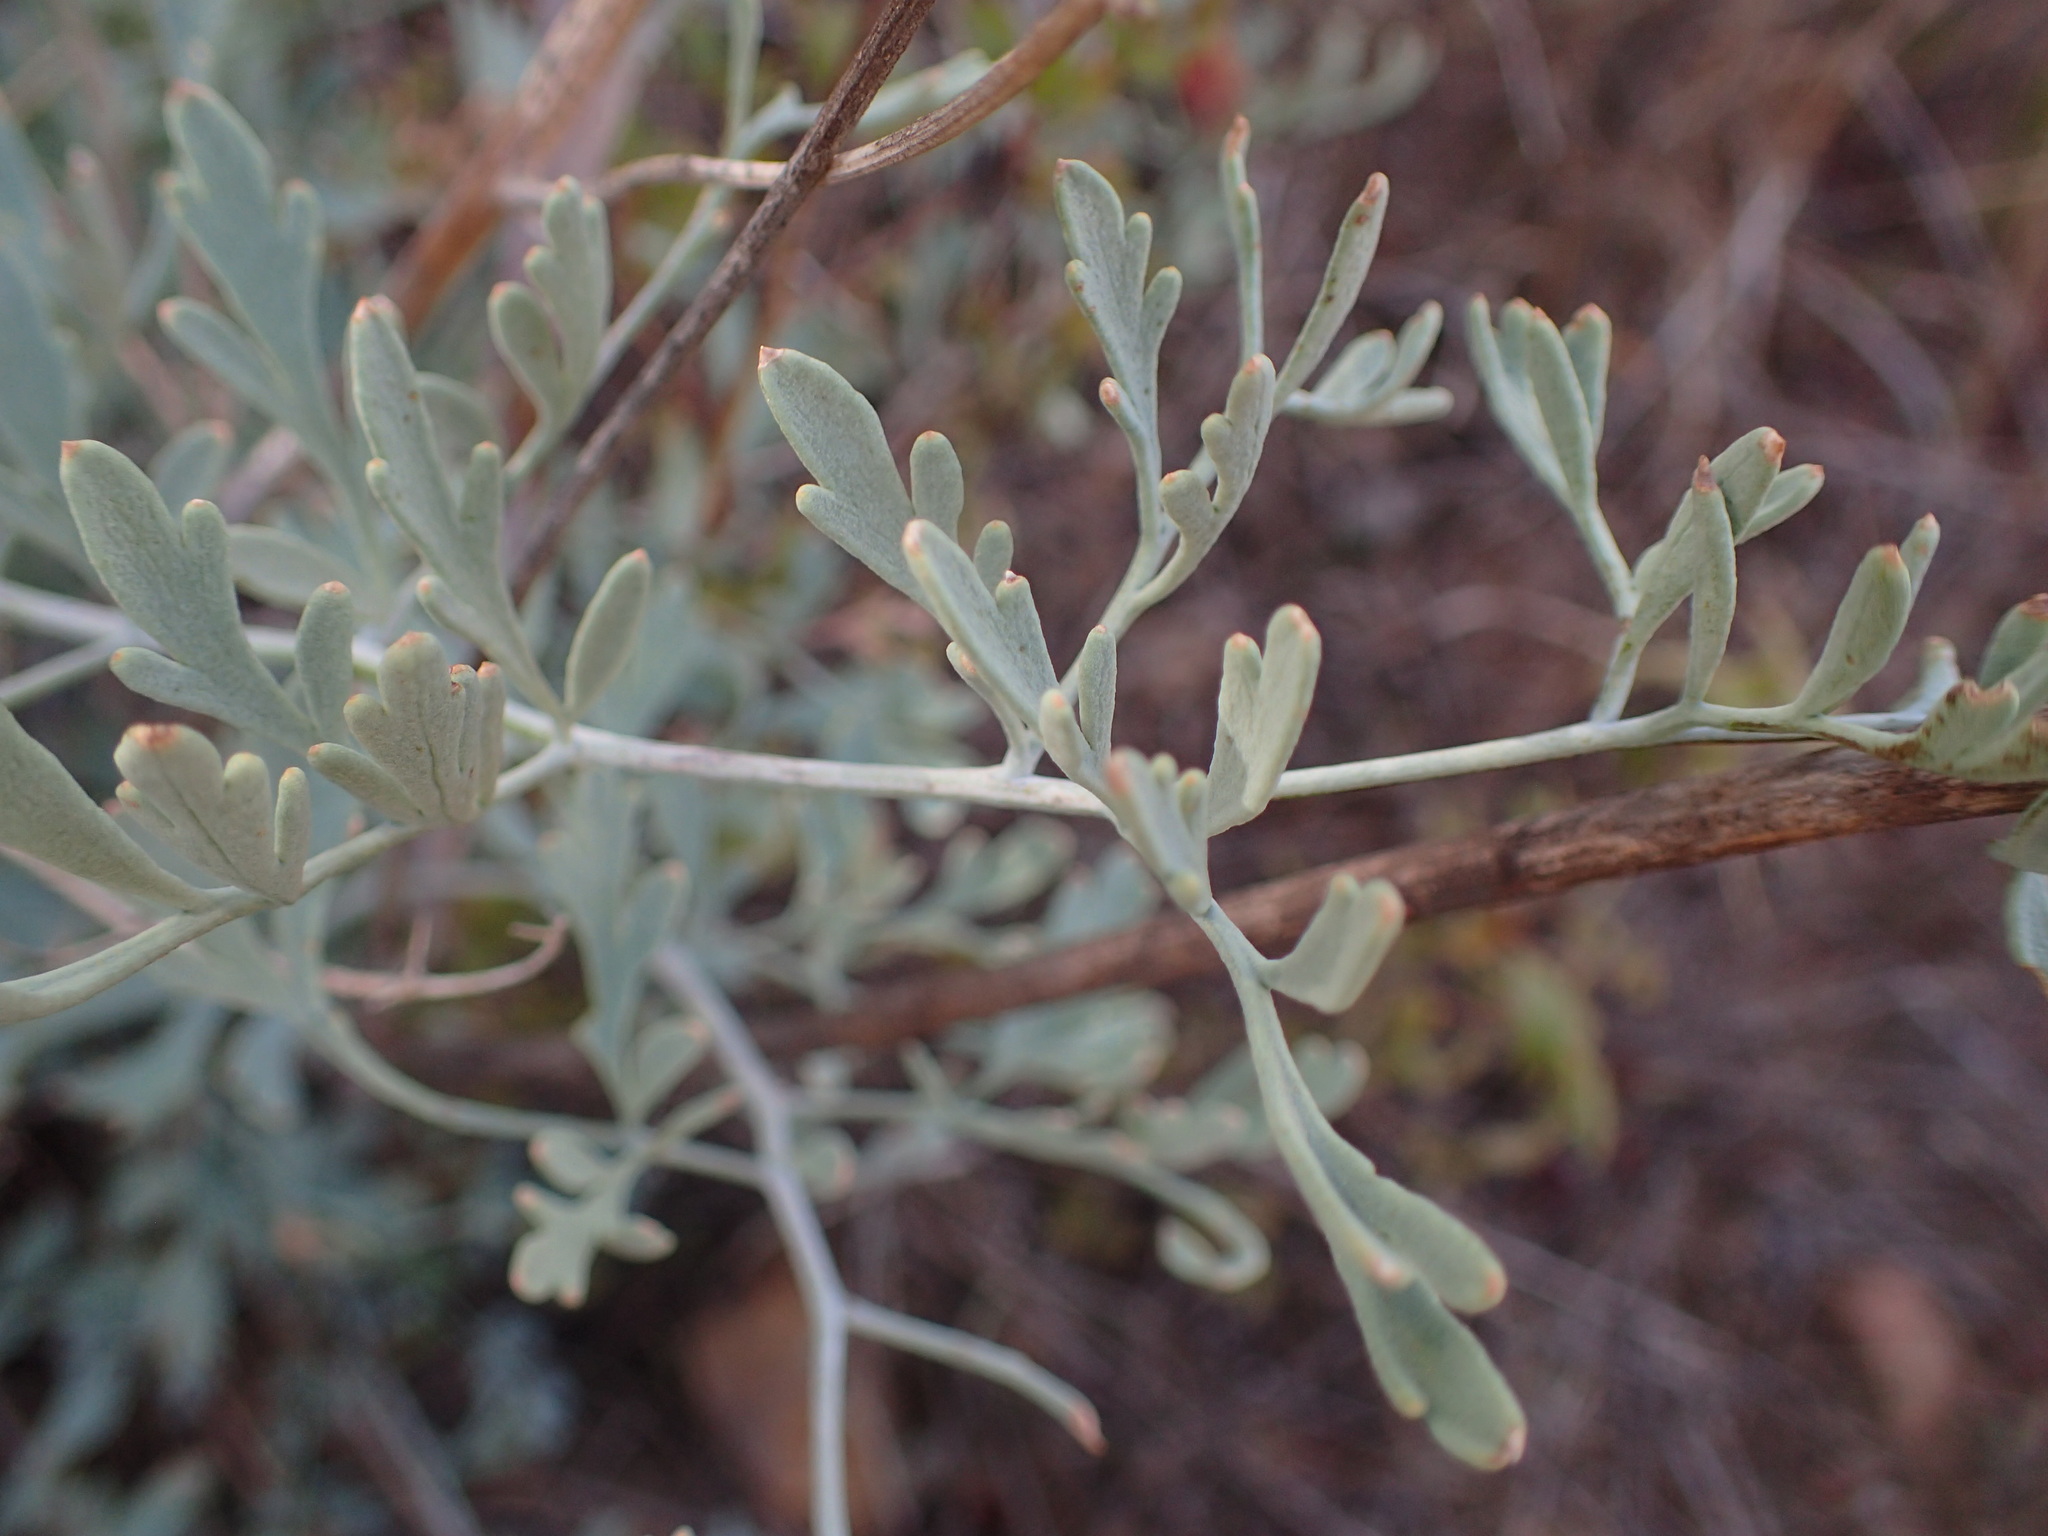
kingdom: Plantae
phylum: Tracheophyta
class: Magnoliopsida
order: Ranunculales
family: Papaveraceae
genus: Ehrendorferia
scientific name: Ehrendorferia chrysantha
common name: Golden eardrops
